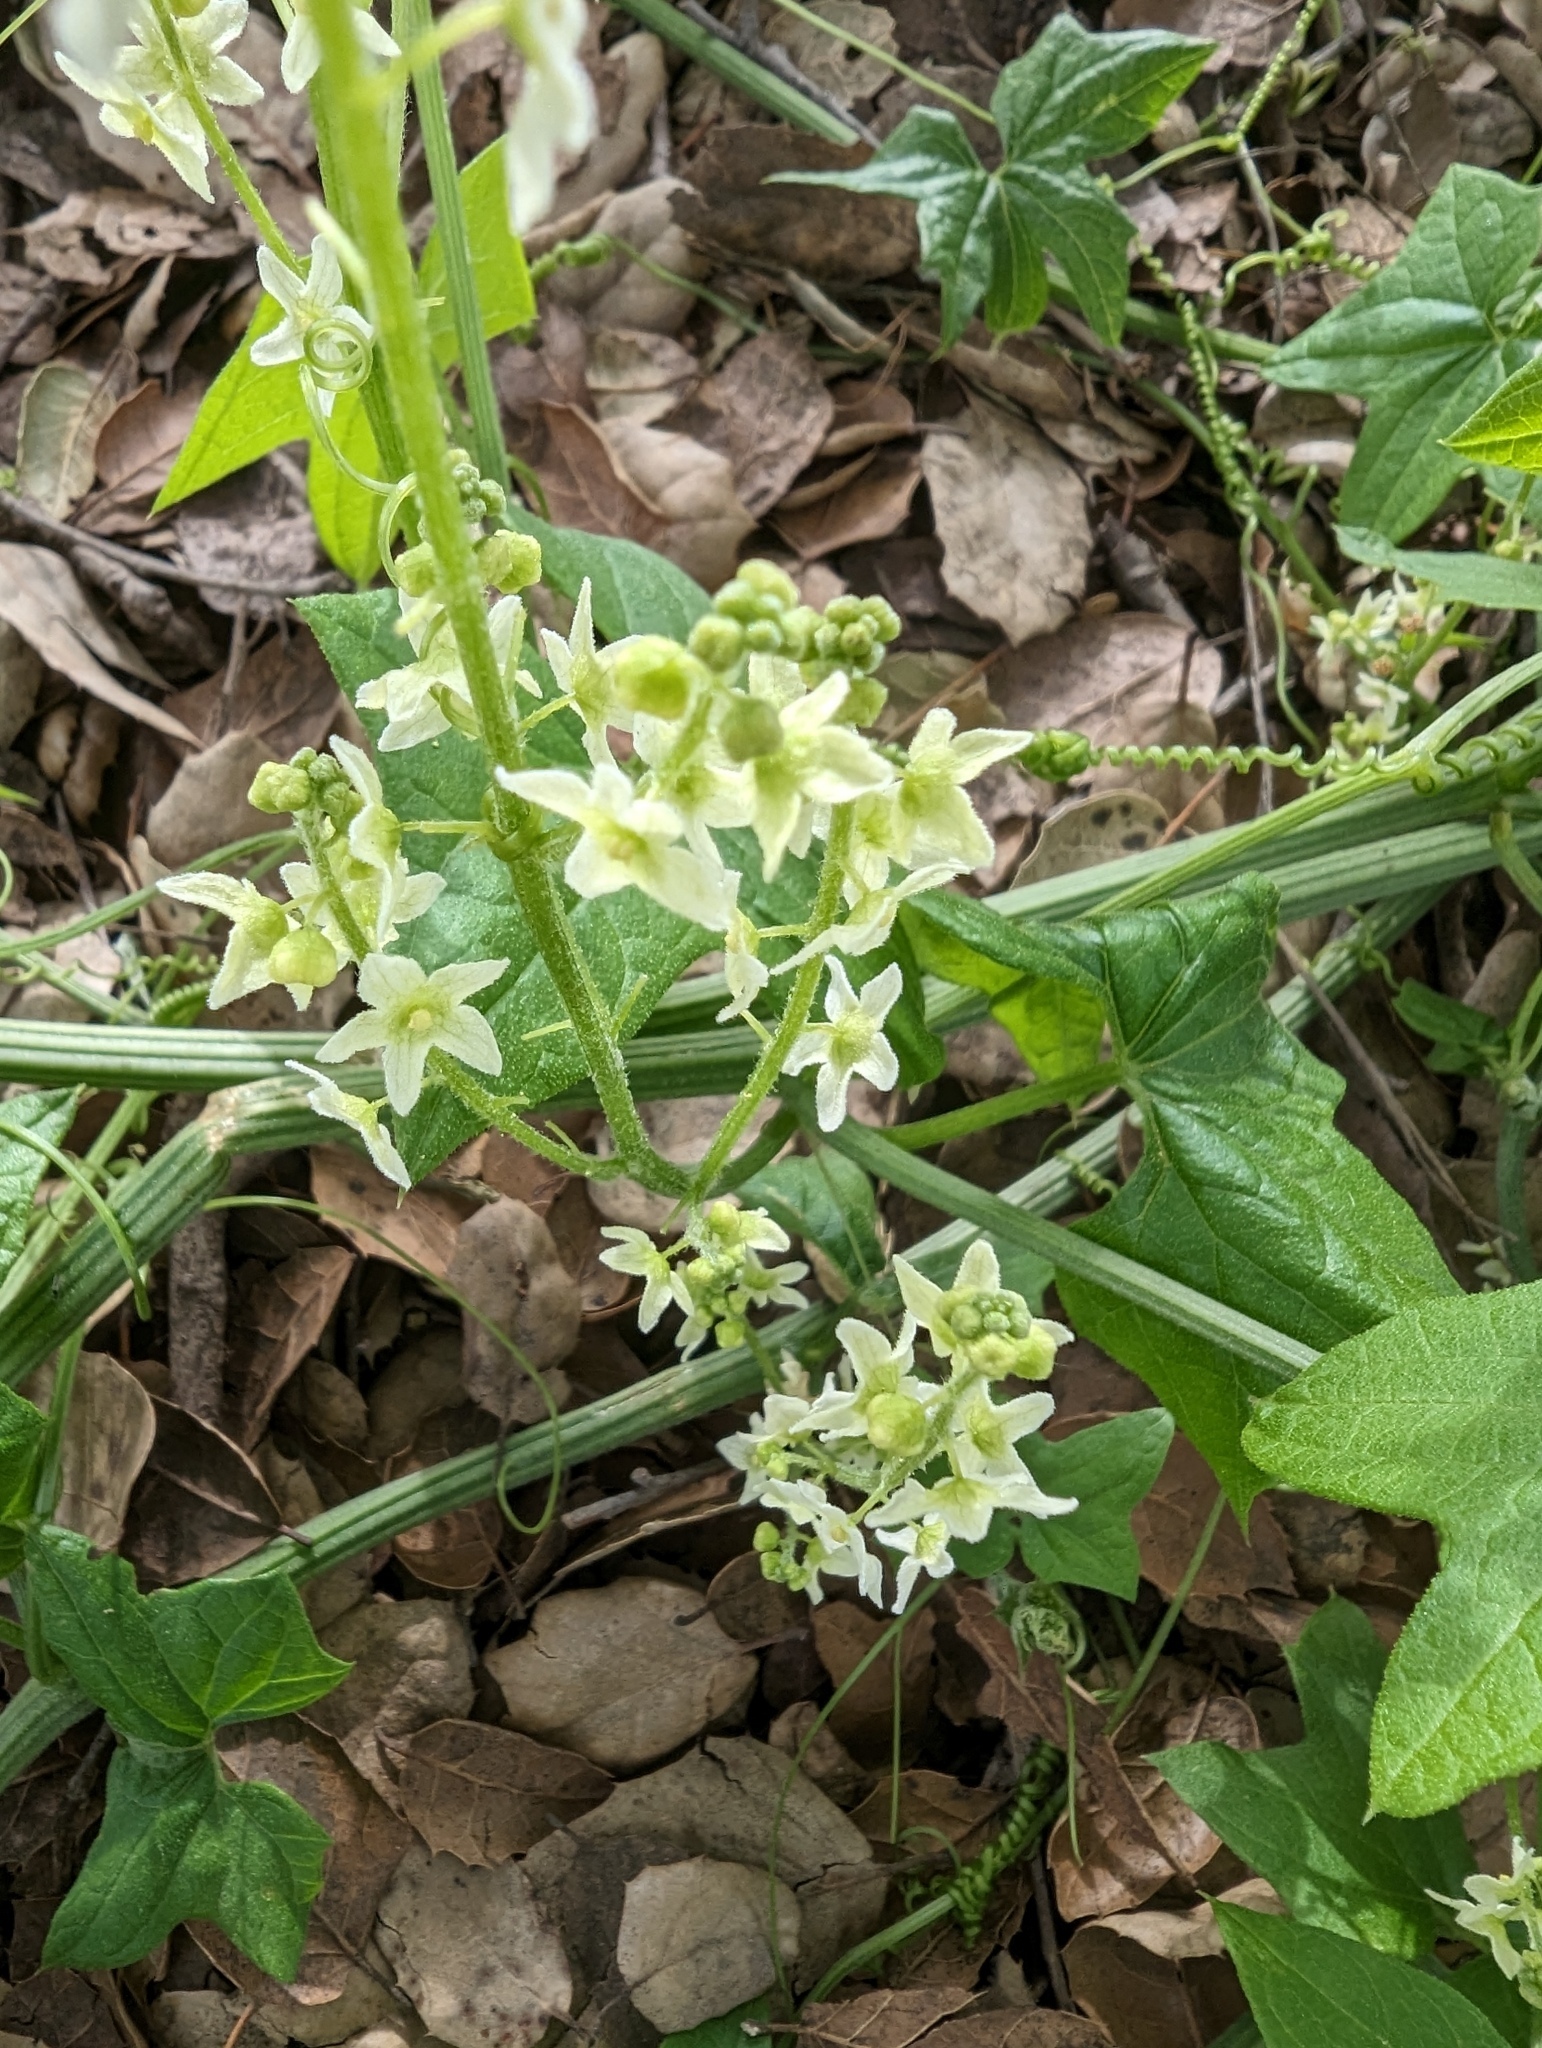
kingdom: Plantae
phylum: Tracheophyta
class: Magnoliopsida
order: Cucurbitales
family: Cucurbitaceae
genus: Marah
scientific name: Marah fabacea
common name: California manroot
